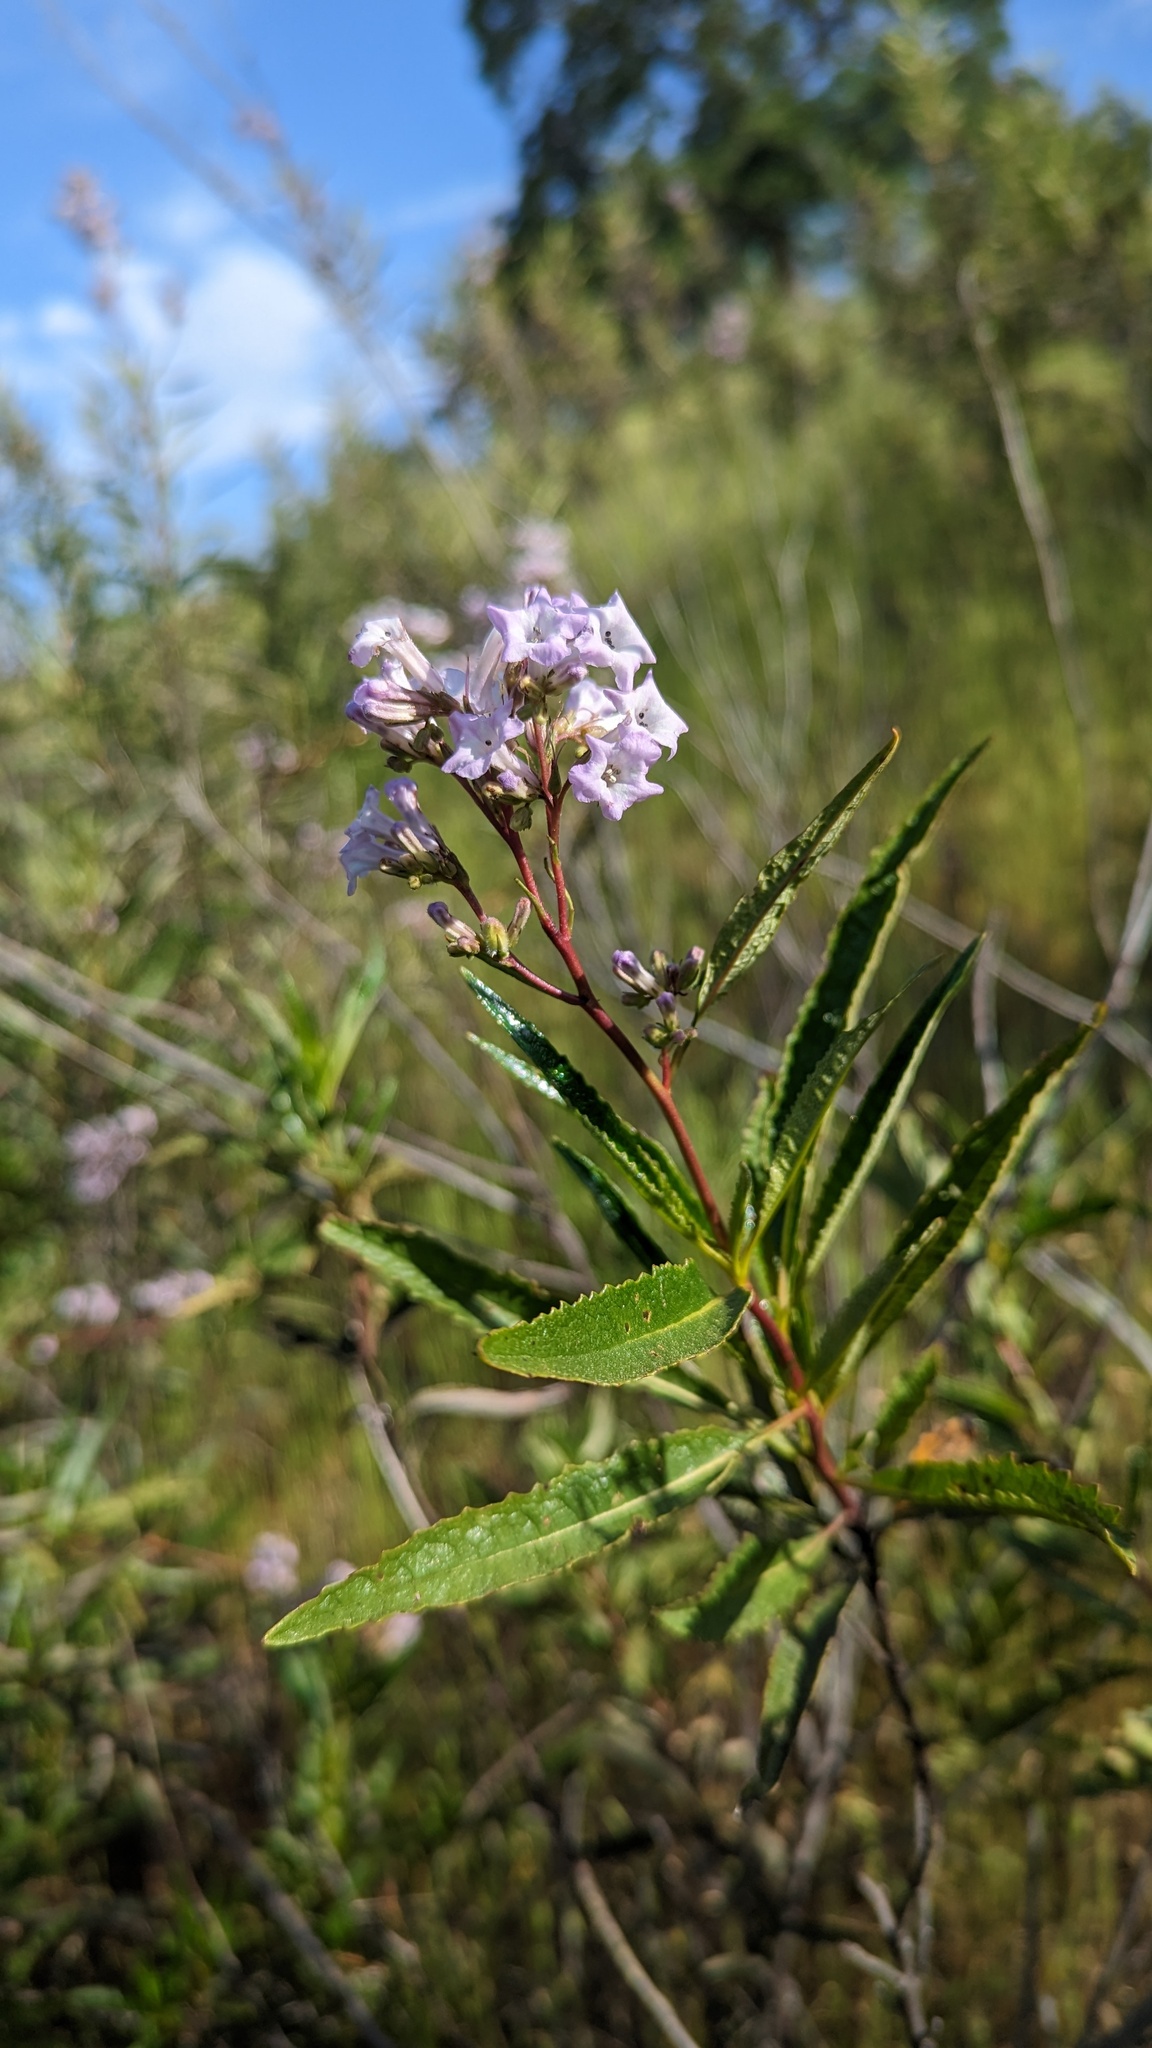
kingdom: Plantae
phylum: Tracheophyta
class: Magnoliopsida
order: Boraginales
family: Namaceae
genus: Eriodictyon
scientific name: Eriodictyon californicum
